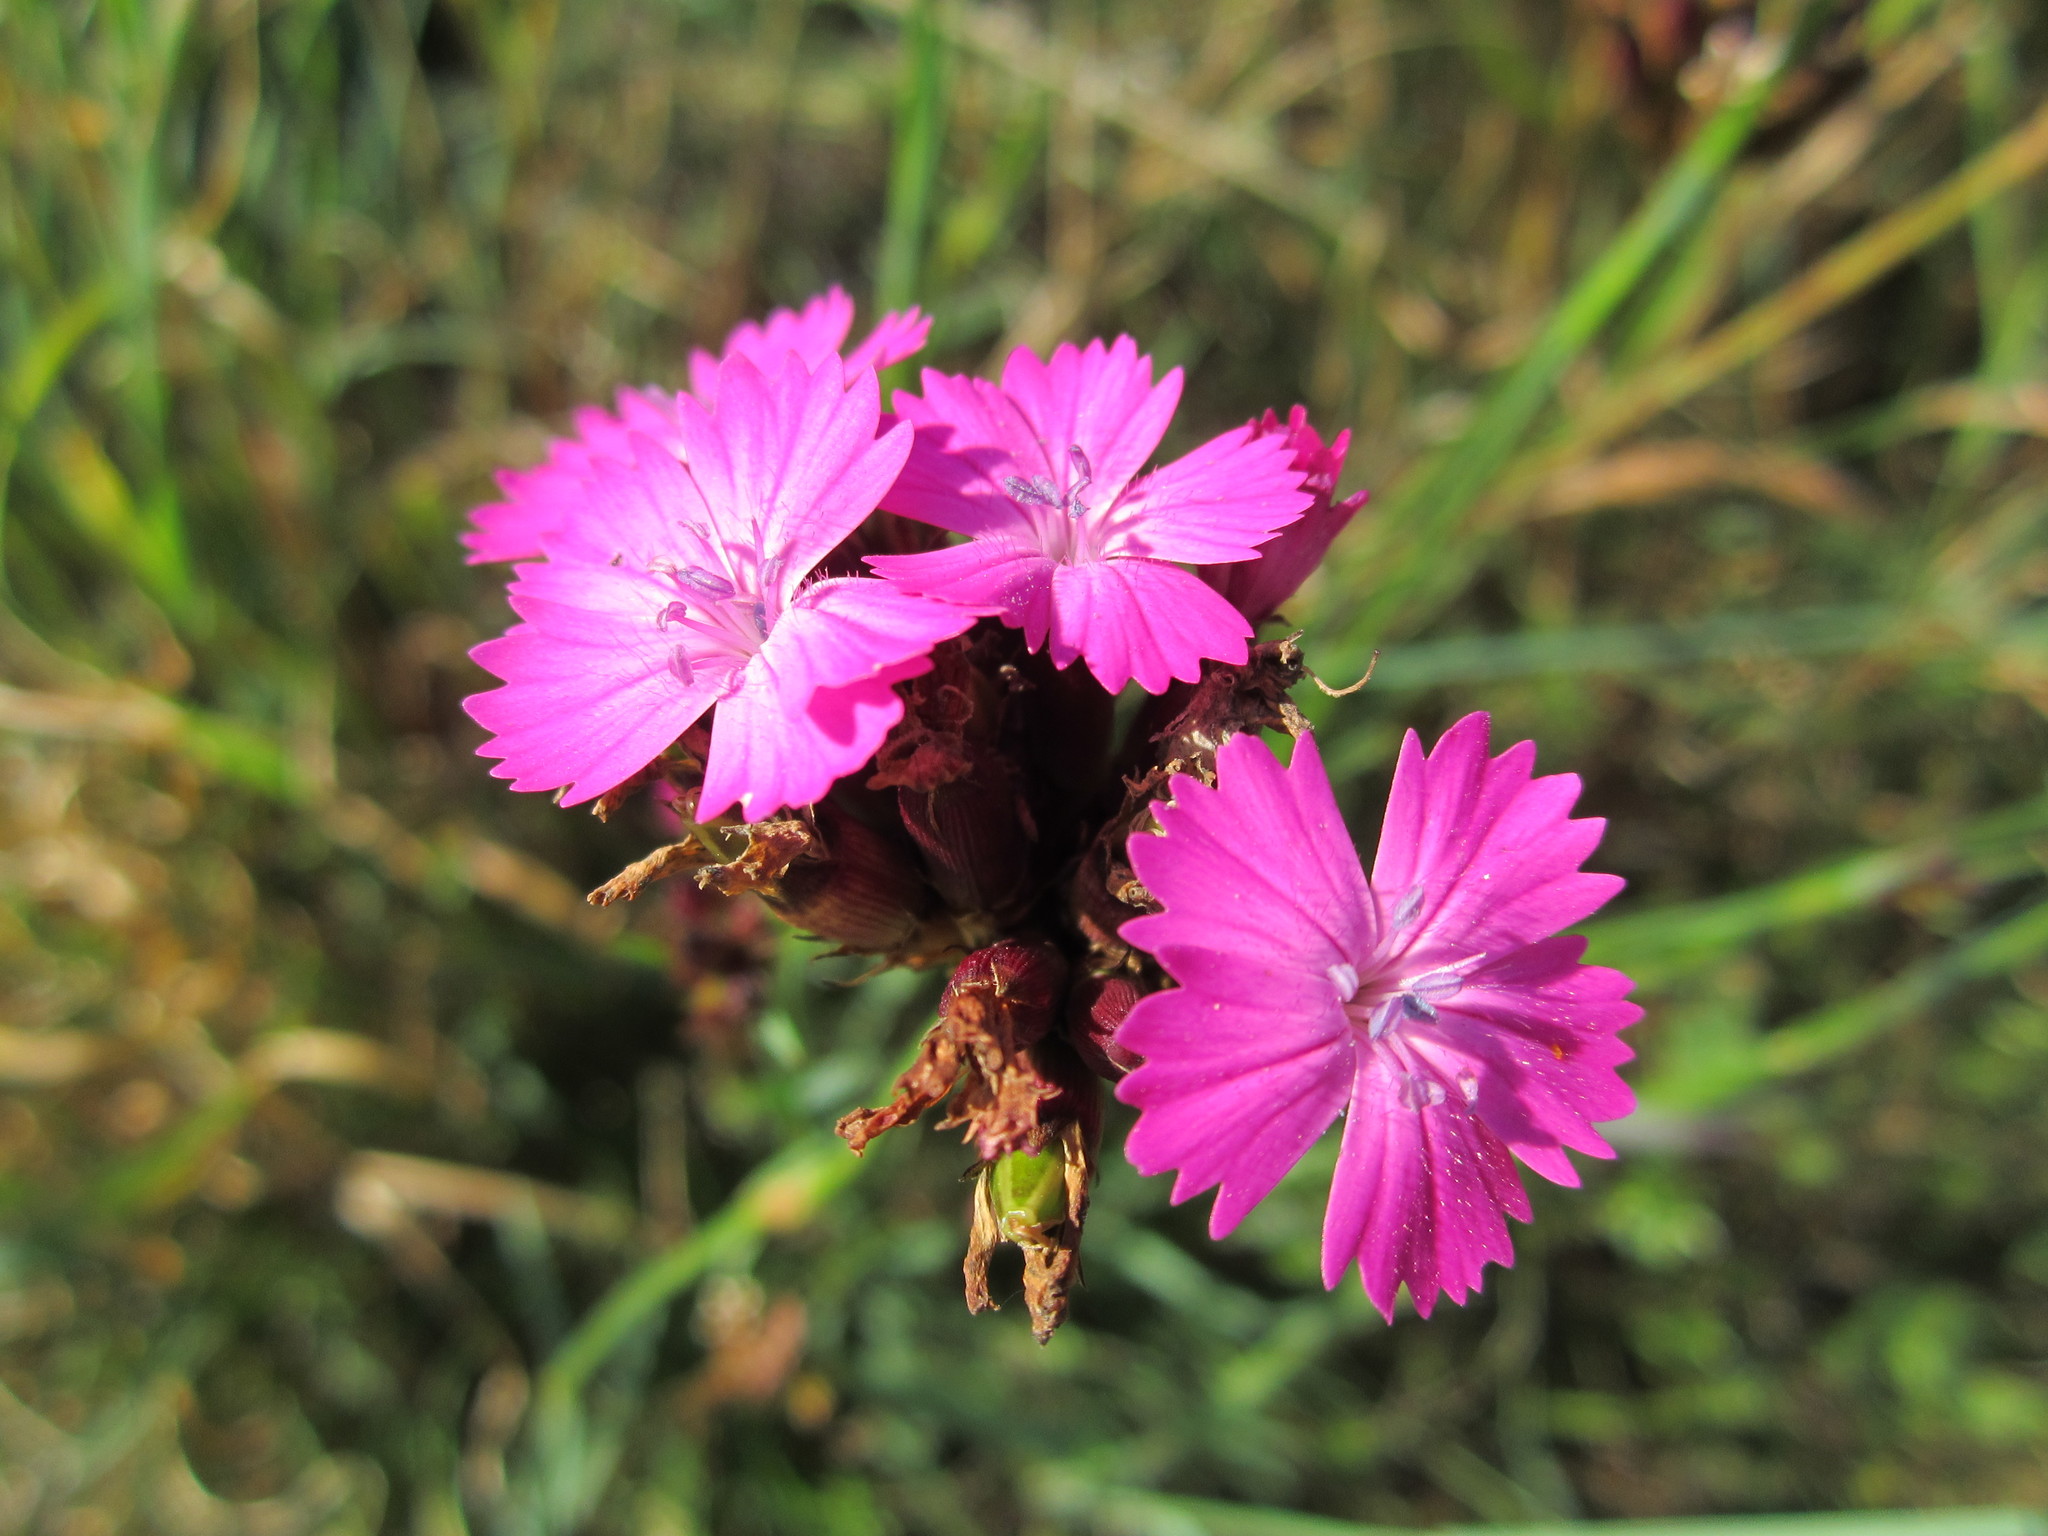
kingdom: Plantae
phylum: Tracheophyta
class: Magnoliopsida
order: Caryophyllales
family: Caryophyllaceae
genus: Dianthus
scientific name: Dianthus carthusianorum
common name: Carthusian pink
